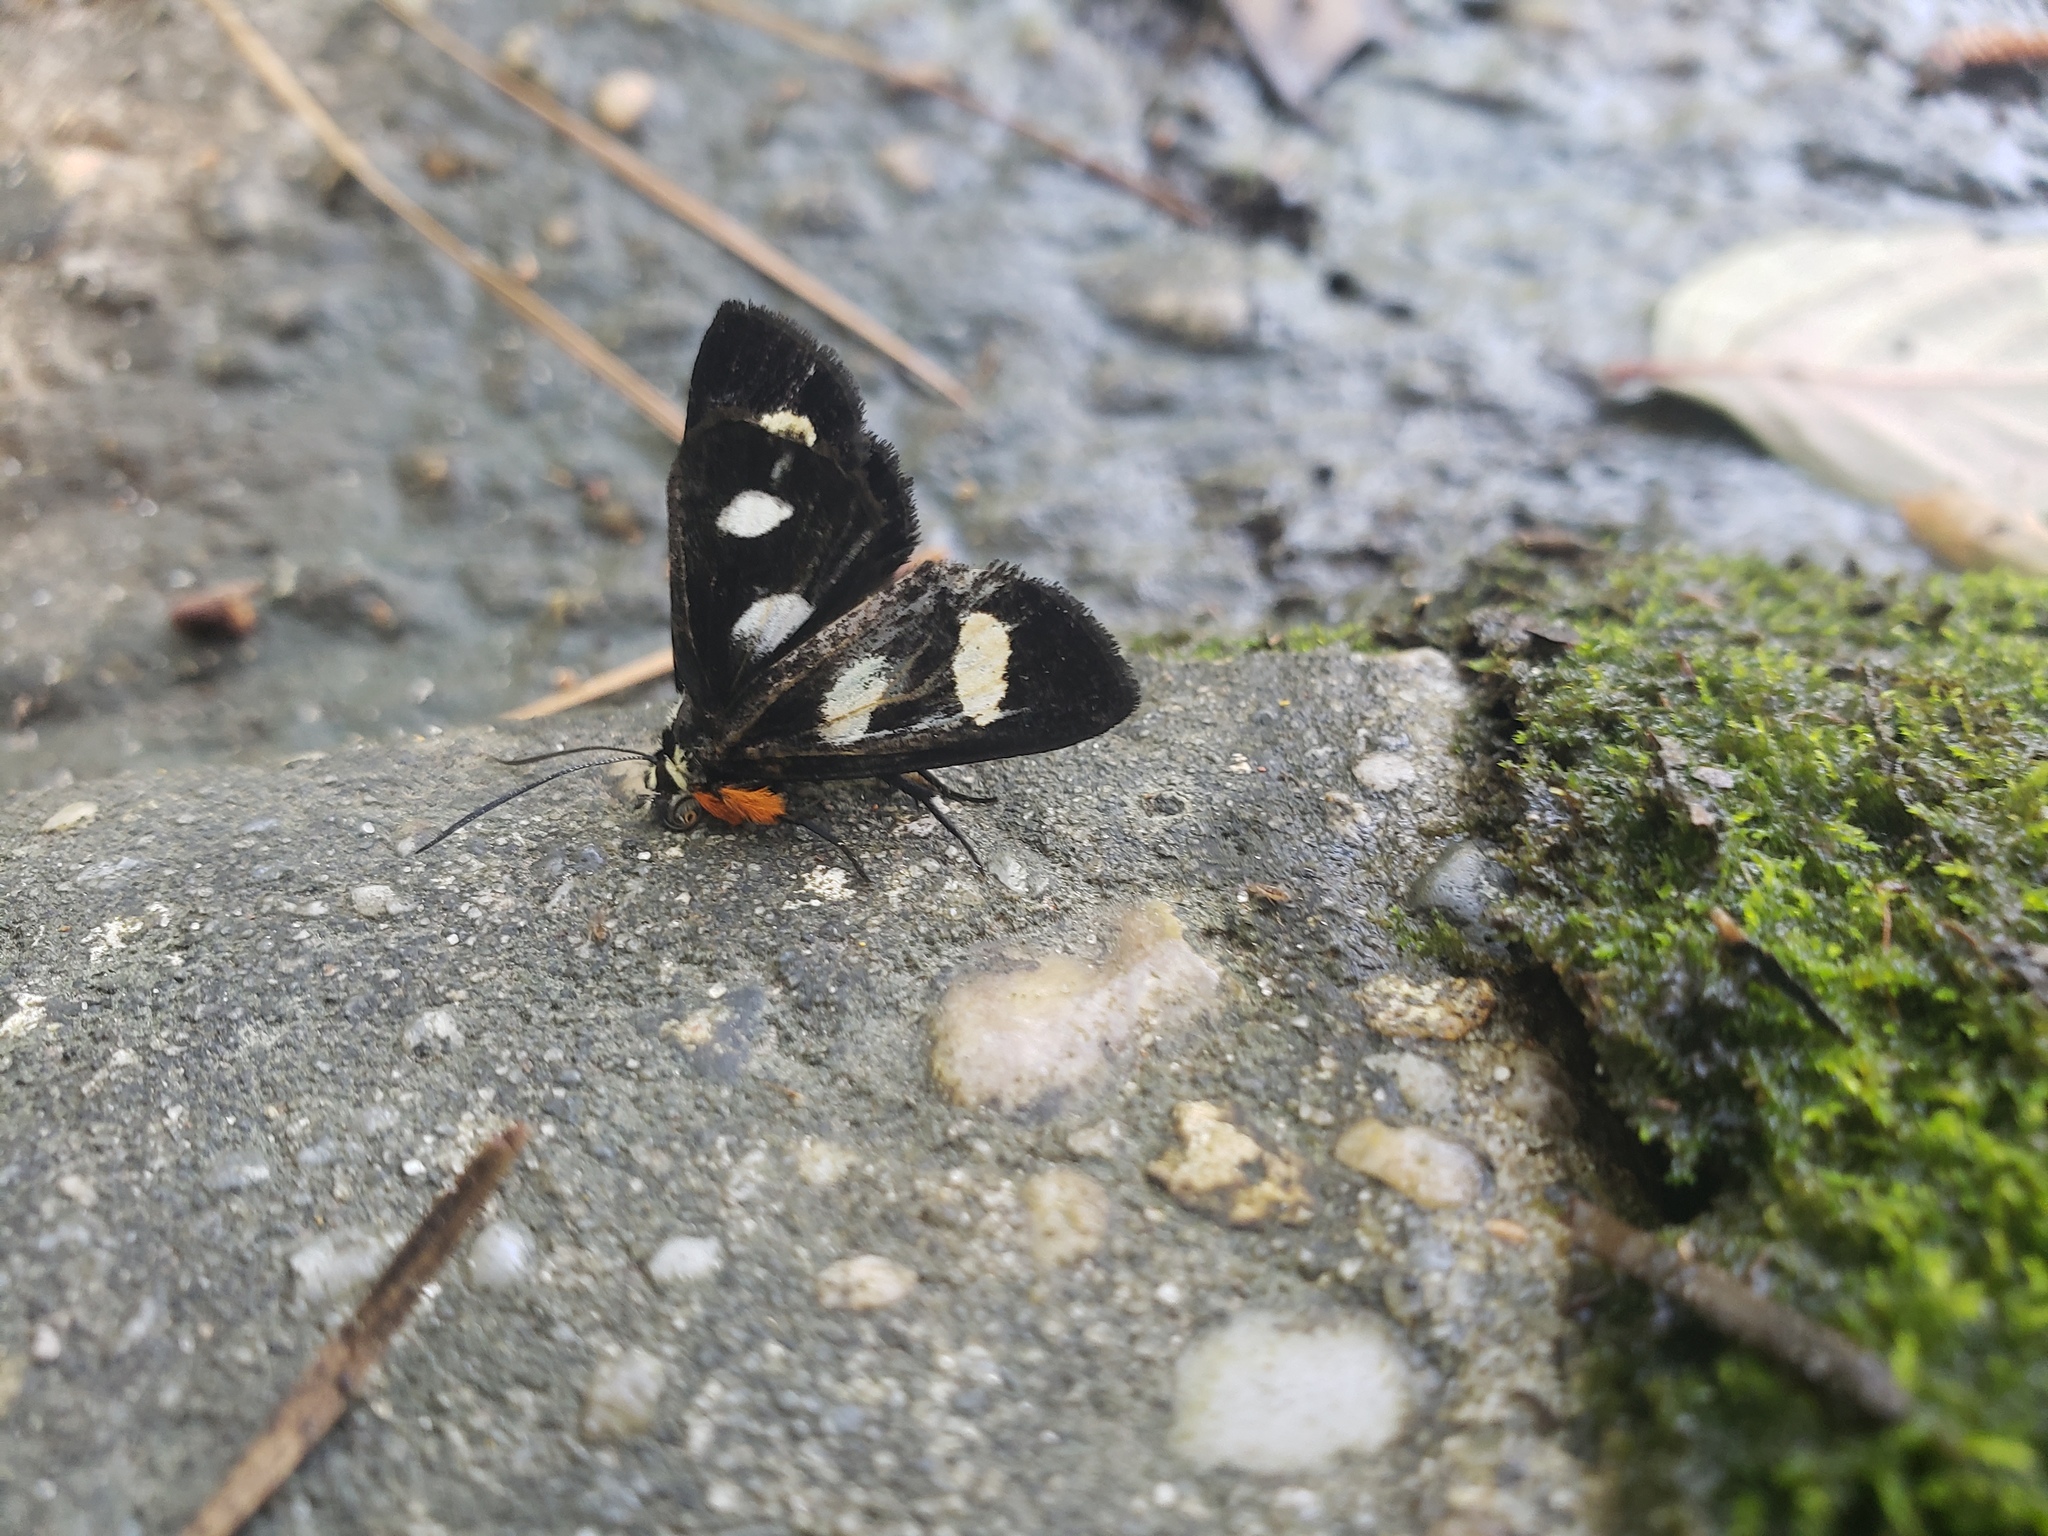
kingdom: Animalia
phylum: Arthropoda
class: Insecta
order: Lepidoptera
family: Noctuidae
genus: Alypia
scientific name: Alypia octomaculata
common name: Eight-spotted forester
